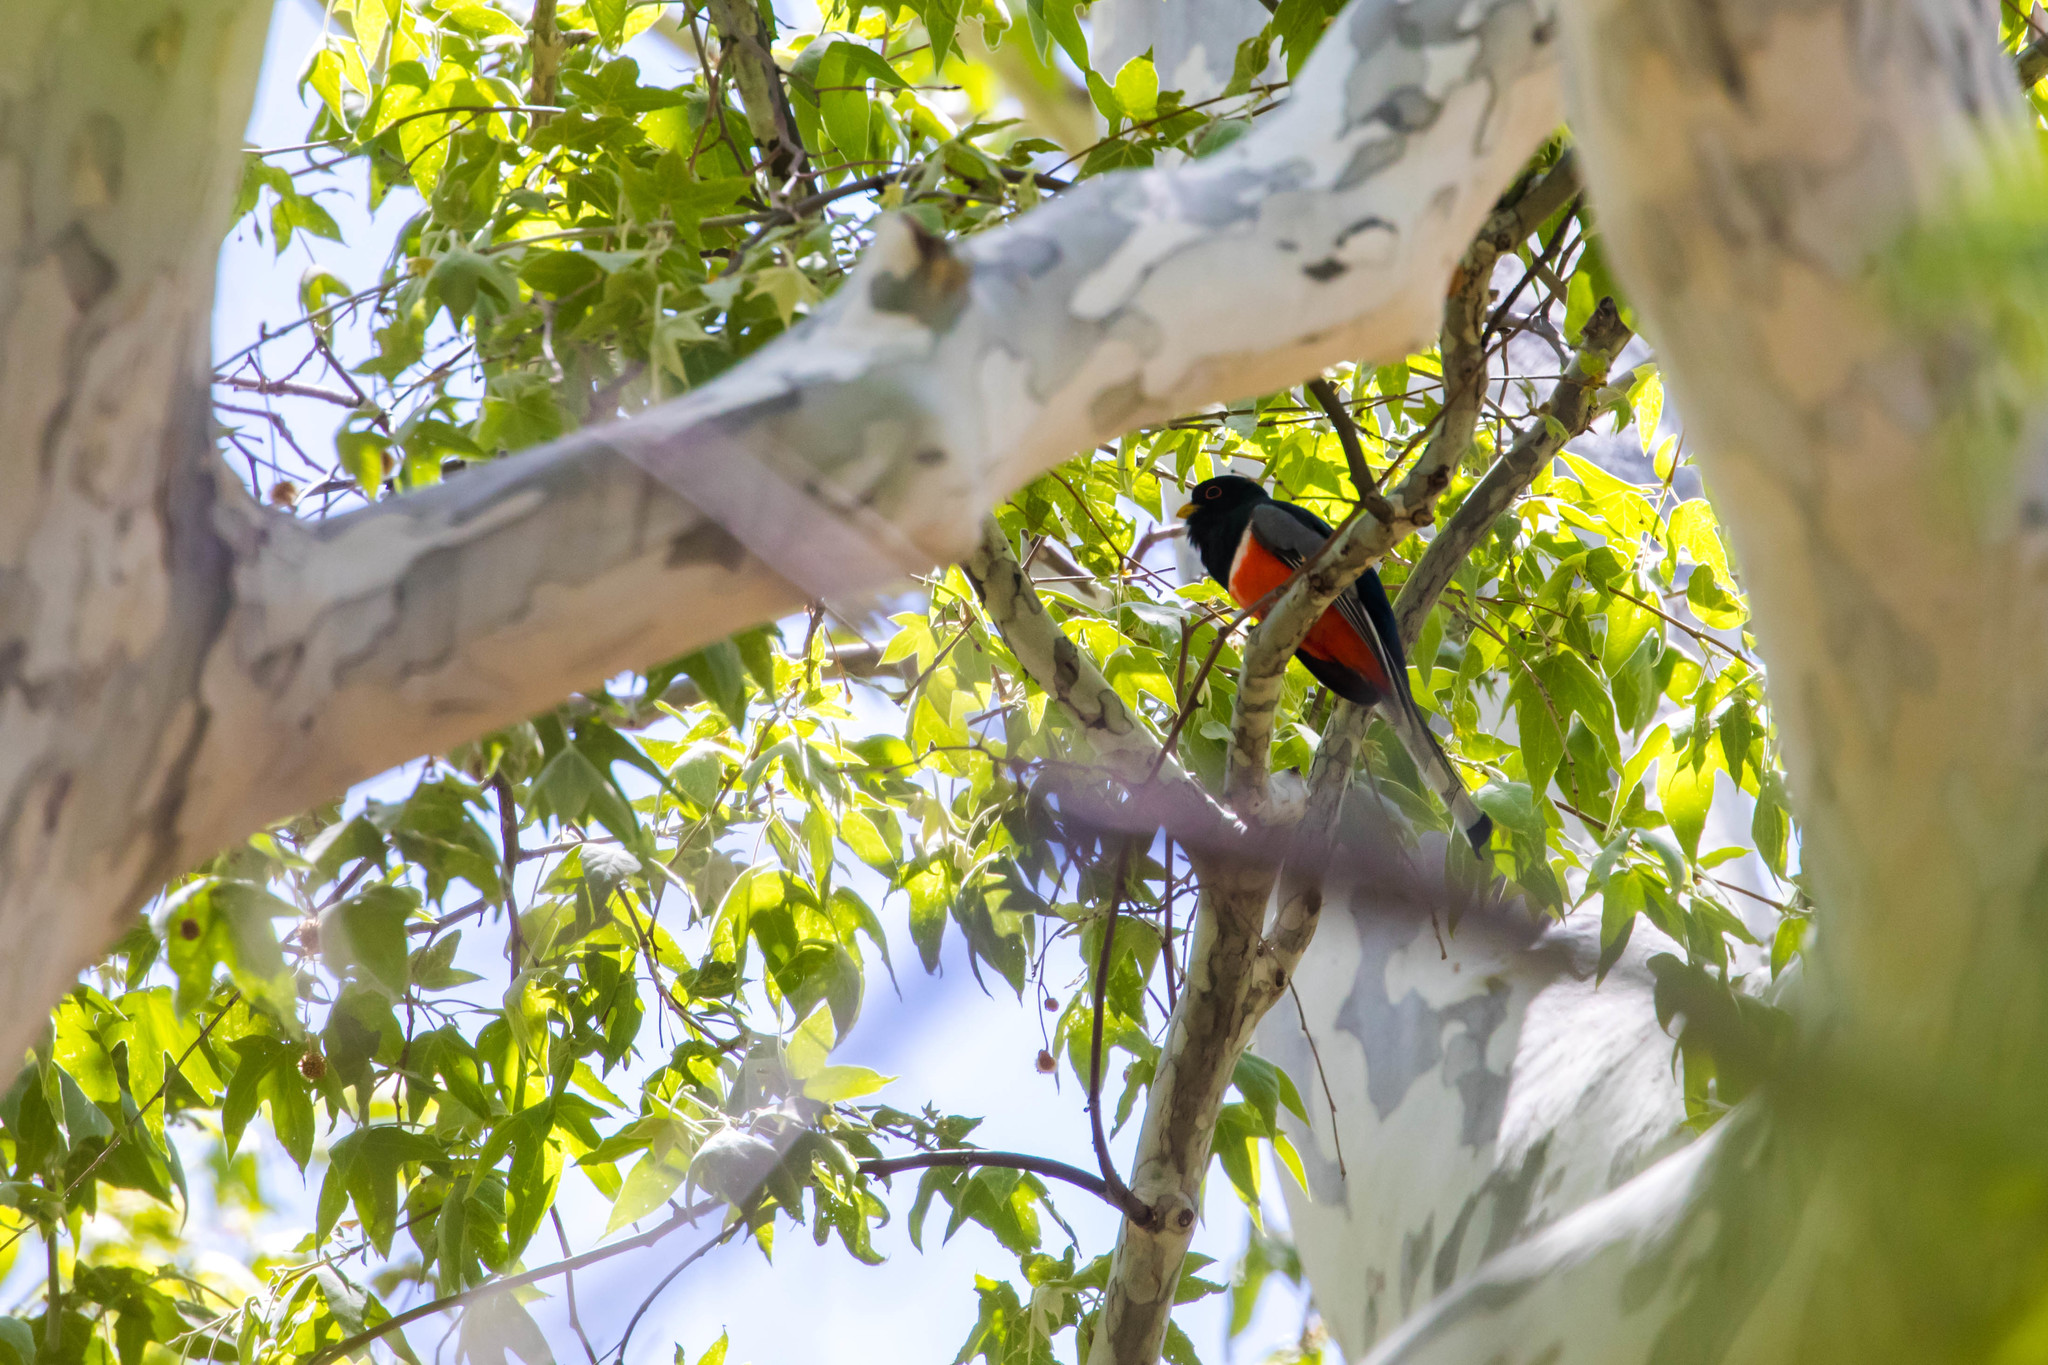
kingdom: Animalia
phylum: Chordata
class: Aves
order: Trogoniformes
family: Trogonidae
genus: Trogon
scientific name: Trogon elegans
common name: Elegant trogon
